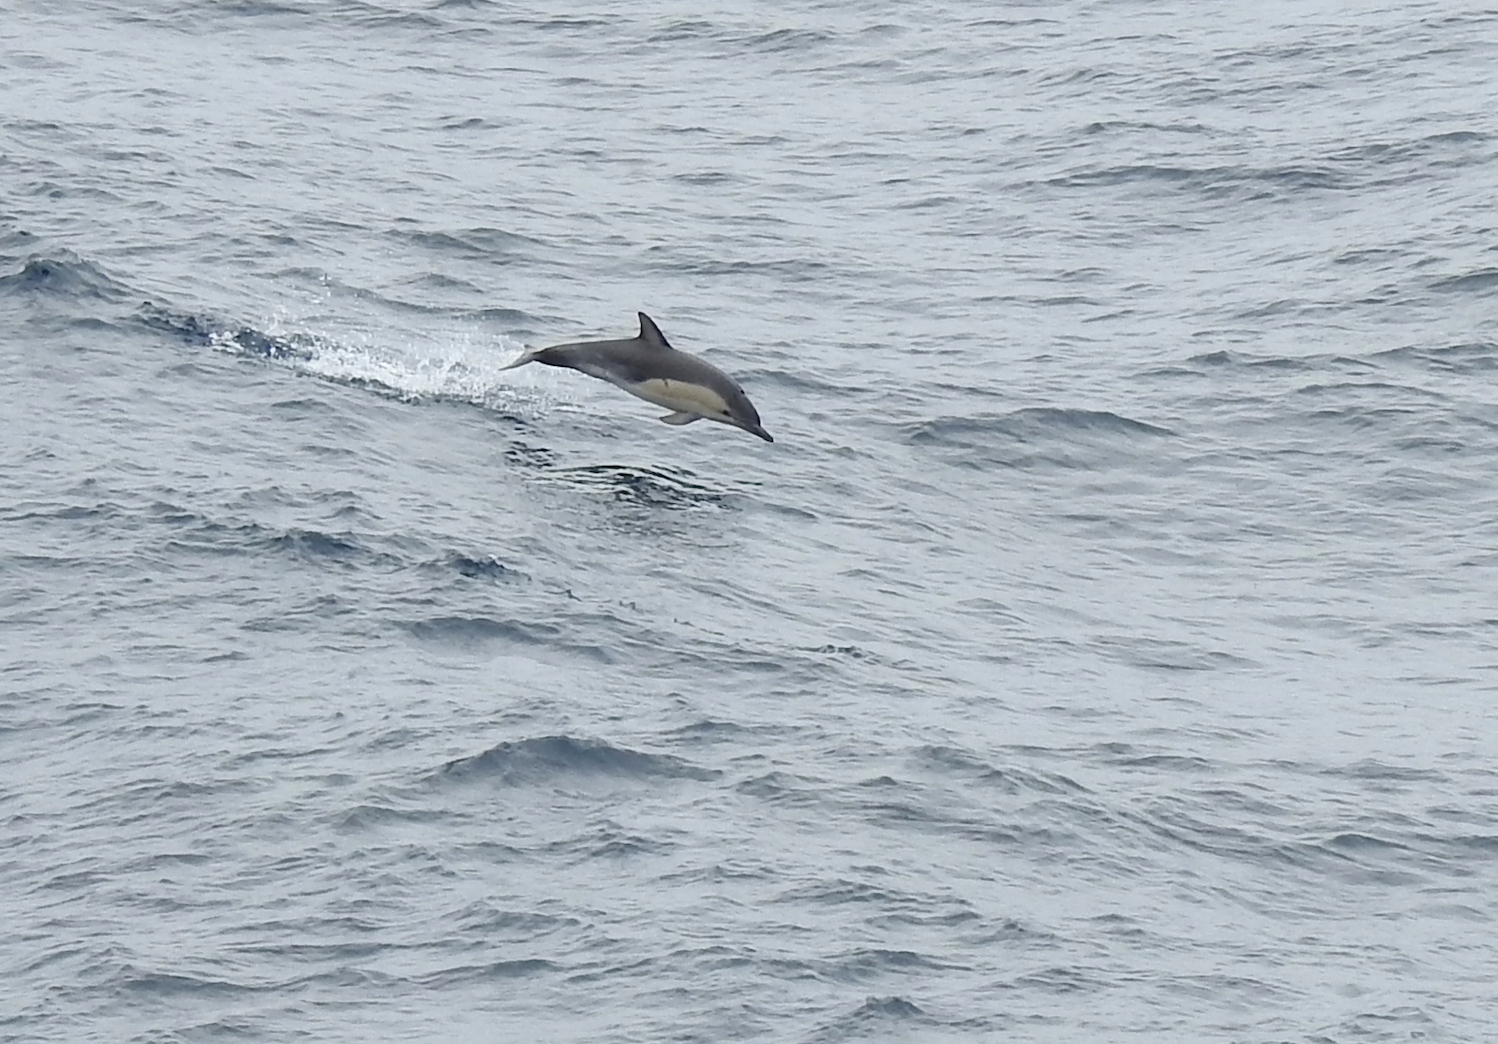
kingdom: Animalia
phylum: Chordata
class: Mammalia
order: Cetacea
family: Delphinidae
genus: Delphinus
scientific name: Delphinus delphis
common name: Common dolphin
